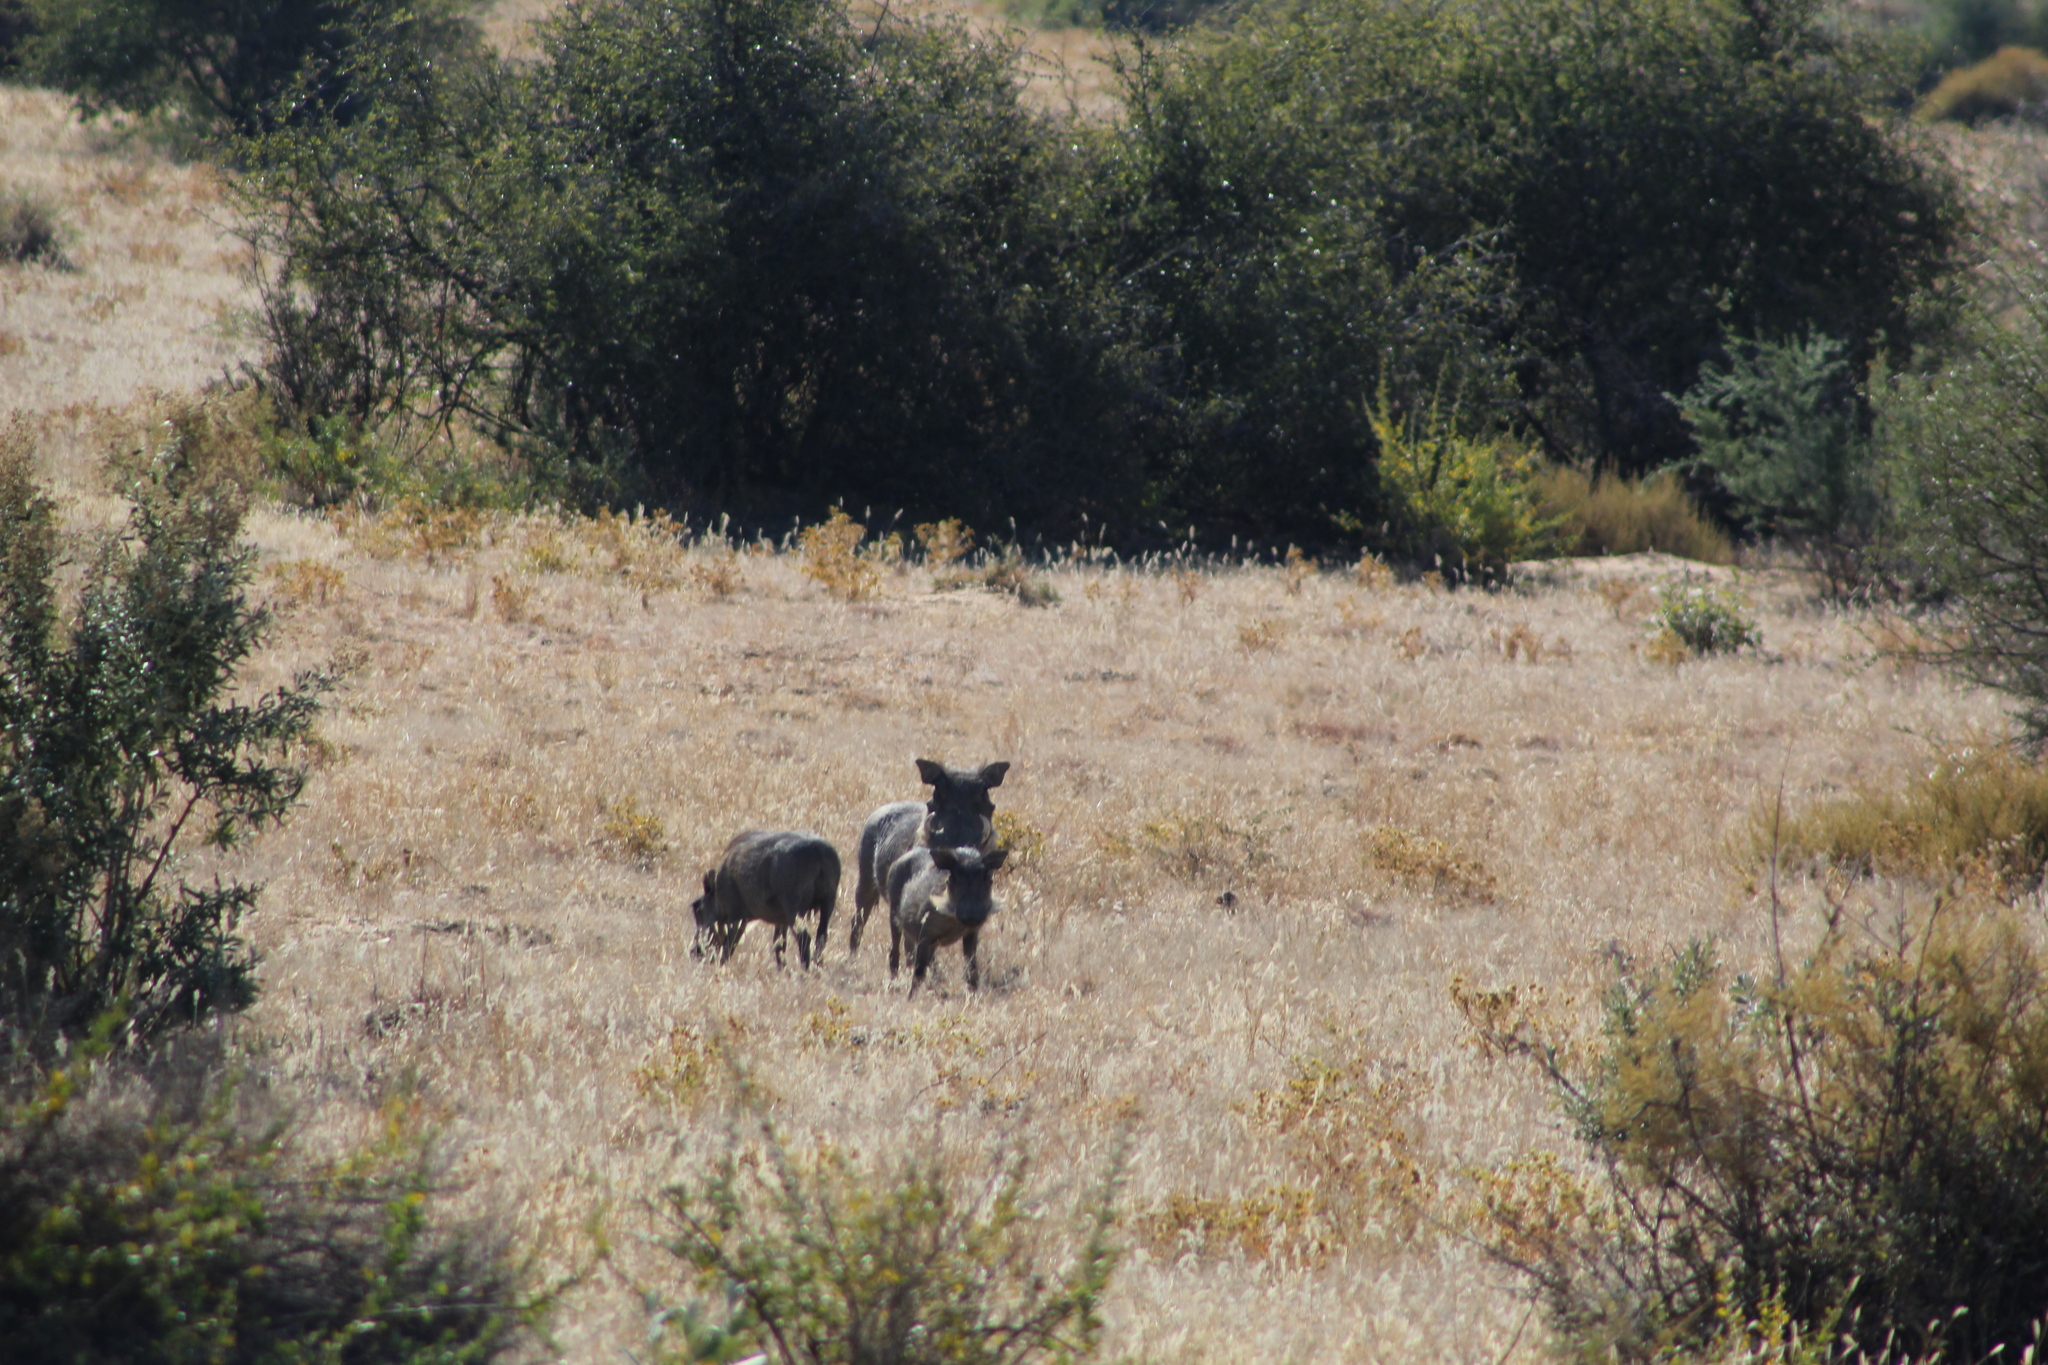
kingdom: Animalia
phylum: Chordata
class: Mammalia
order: Artiodactyla
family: Suidae
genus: Phacochoerus
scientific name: Phacochoerus africanus
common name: Common warthog
